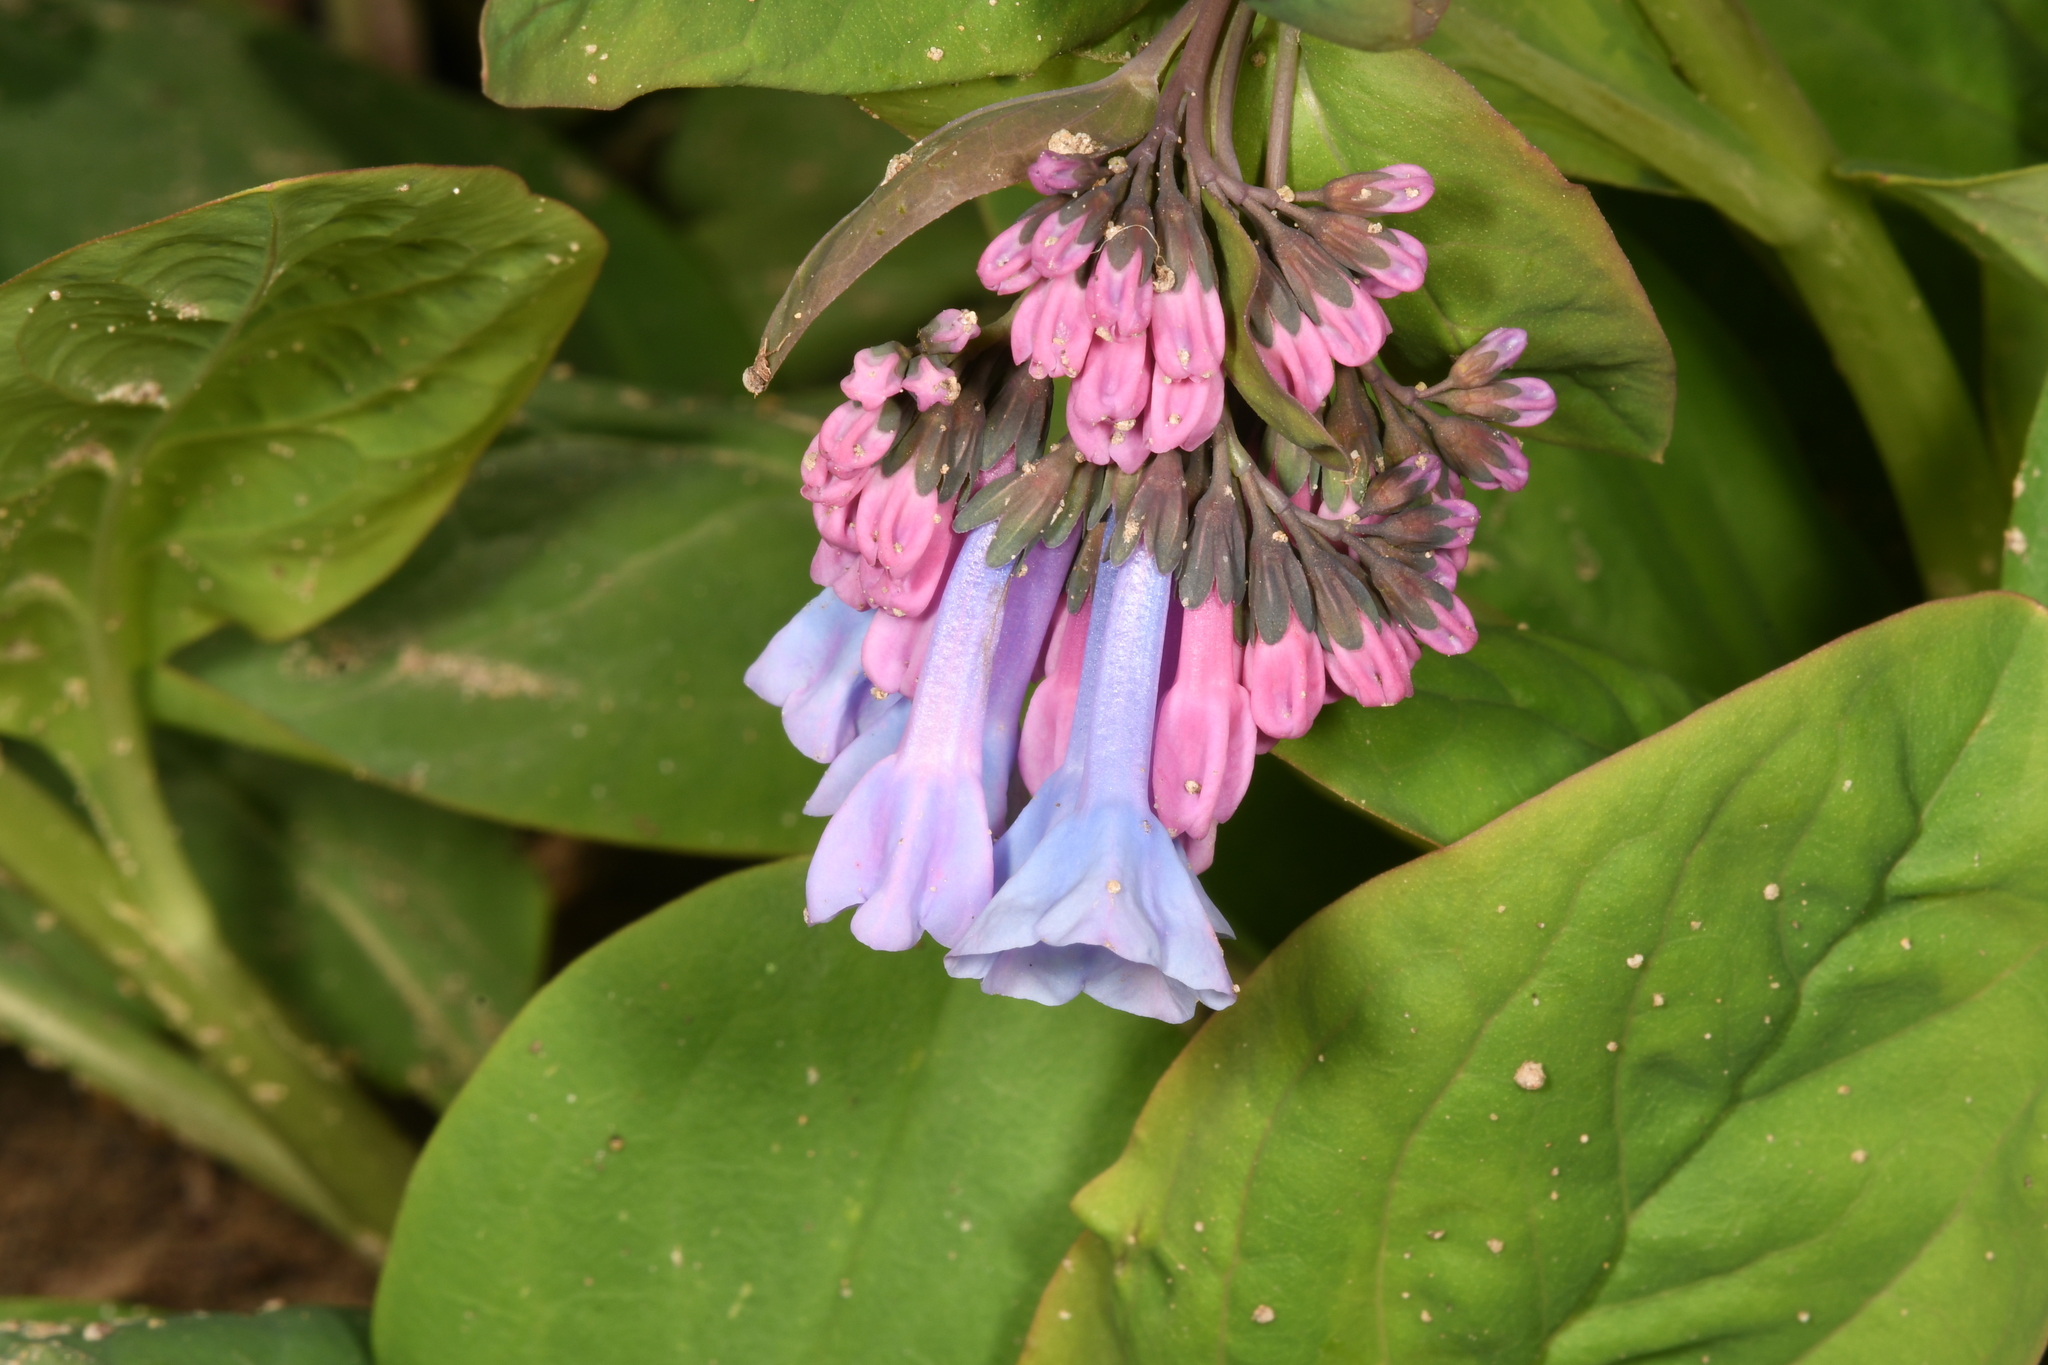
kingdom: Plantae
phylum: Tracheophyta
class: Magnoliopsida
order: Boraginales
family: Boraginaceae
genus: Mertensia
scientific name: Mertensia virginica
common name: Virginia bluebells
